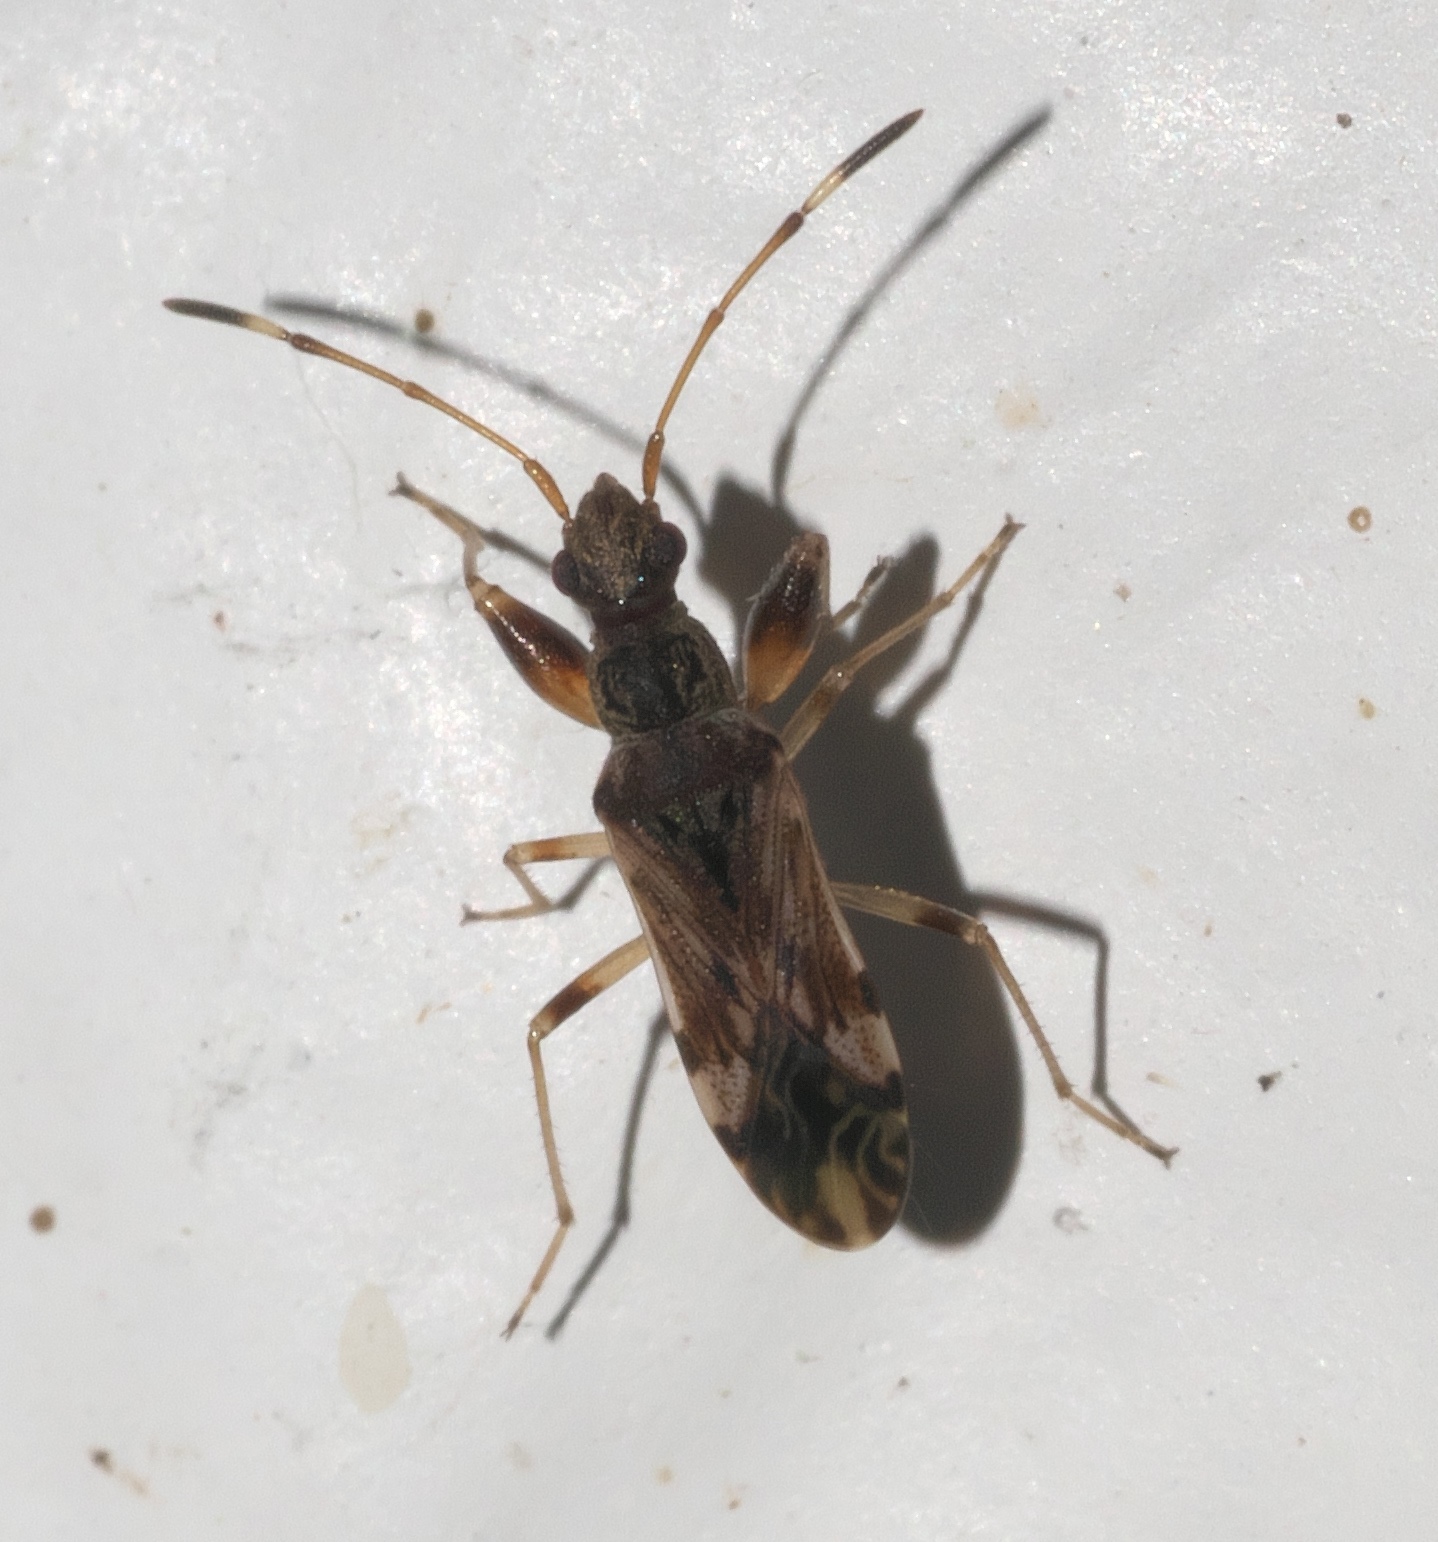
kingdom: Animalia
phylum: Arthropoda
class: Insecta
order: Hemiptera
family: Rhyparochromidae
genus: Neopamera
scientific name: Neopamera albocincta
